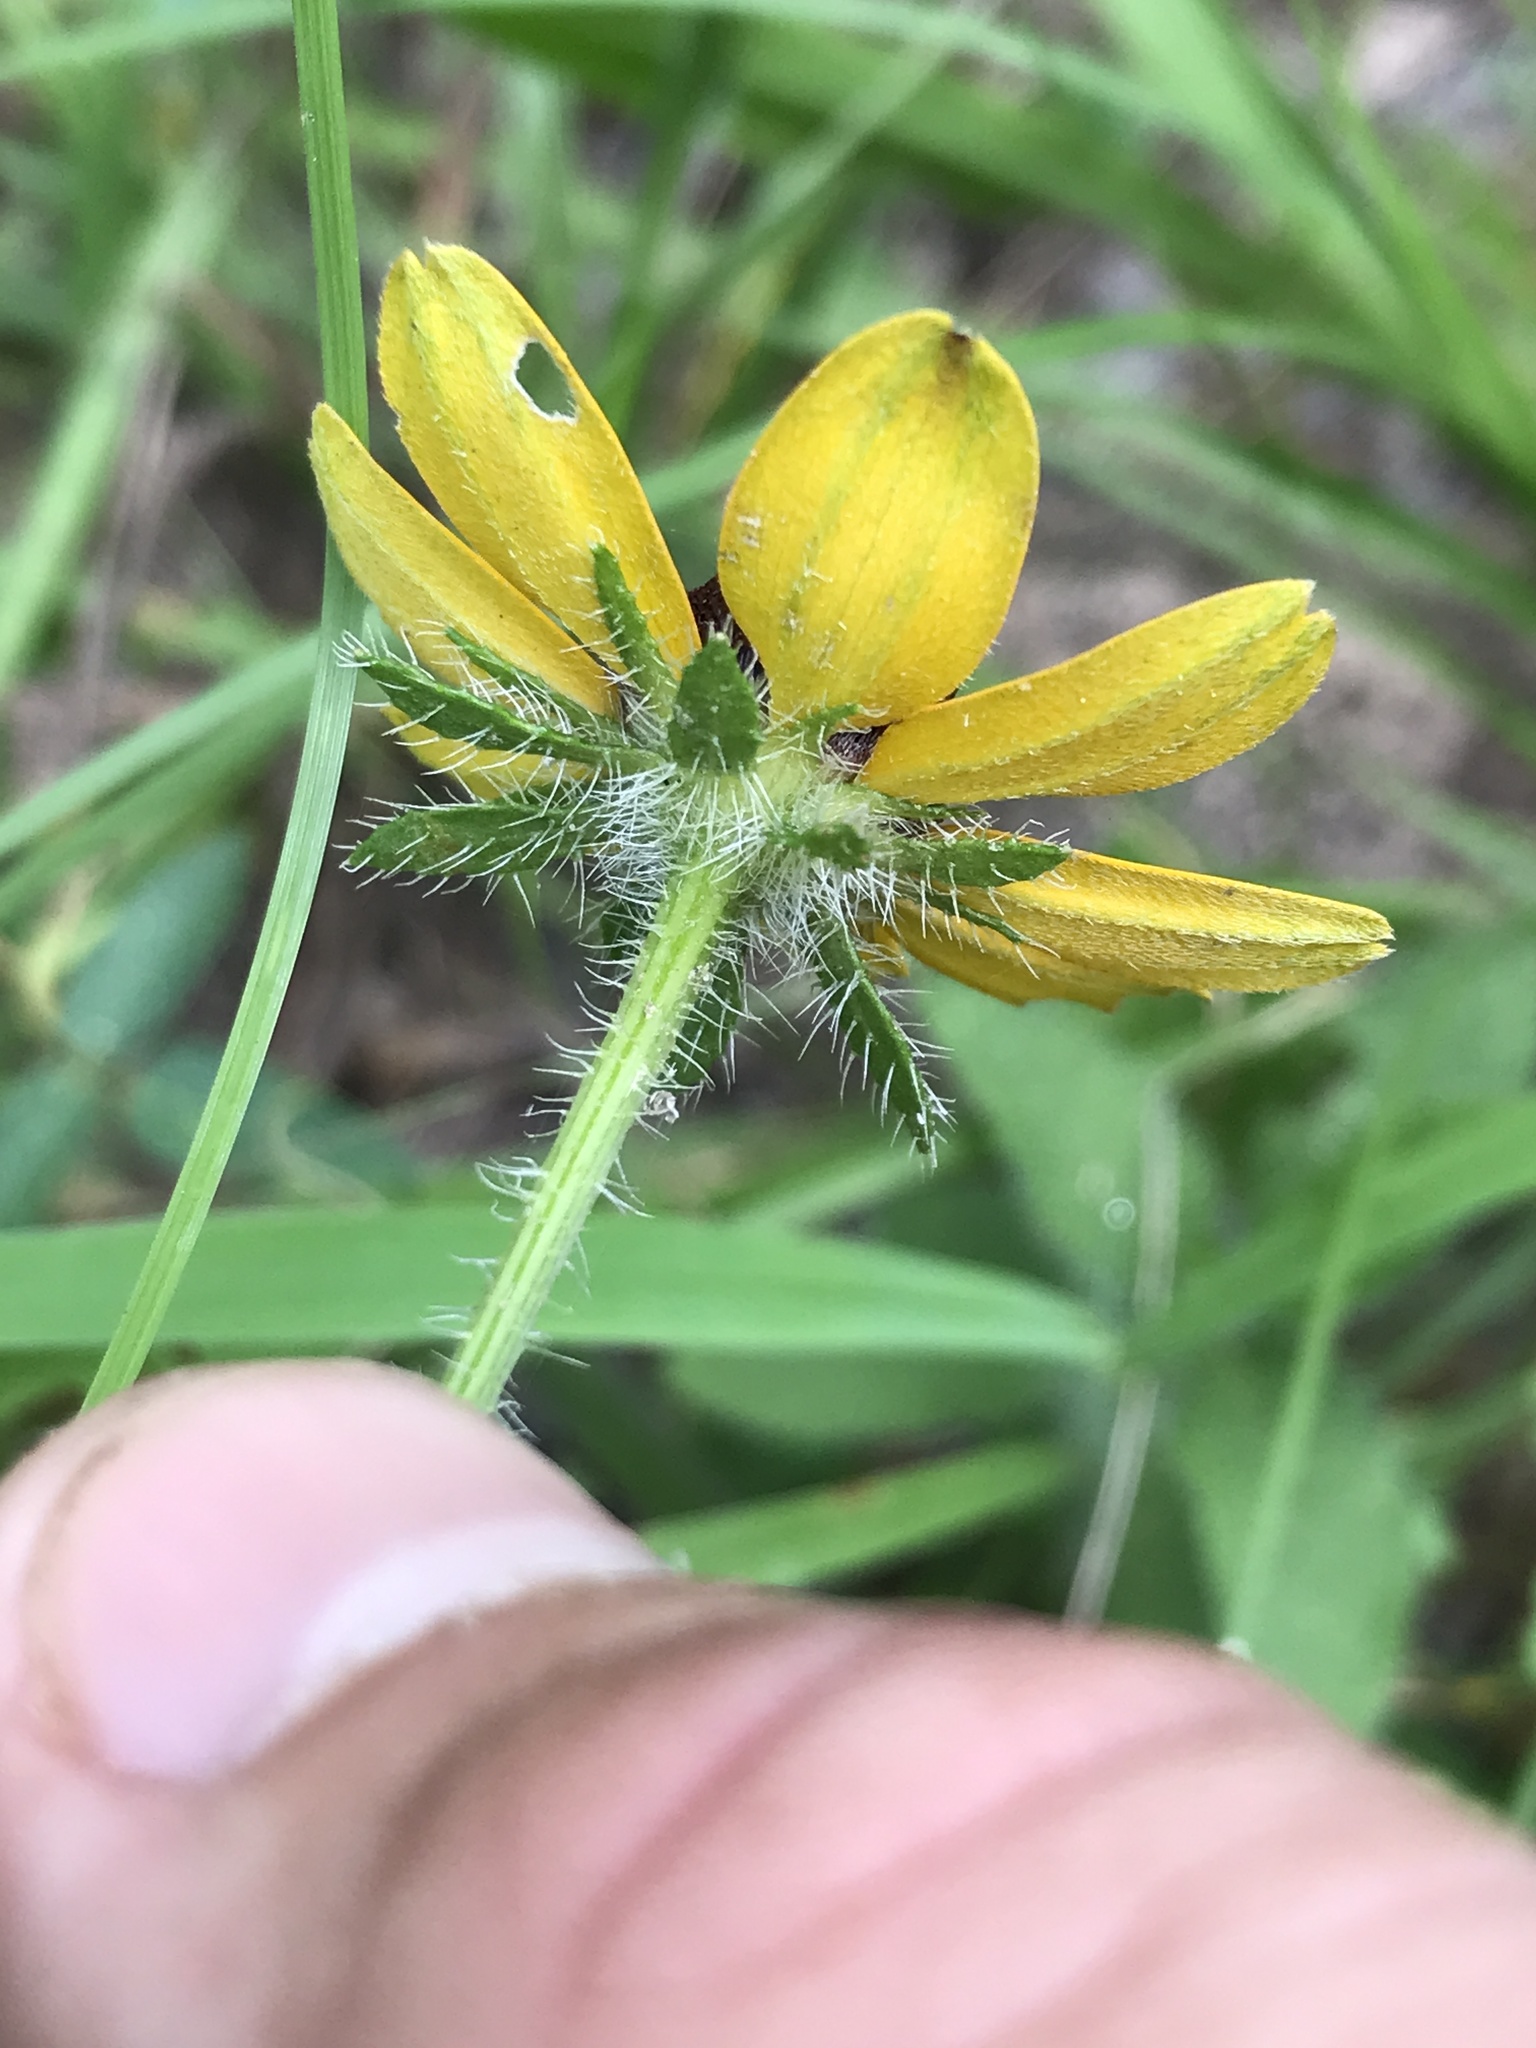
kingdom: Plantae
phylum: Tracheophyta
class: Magnoliopsida
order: Asterales
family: Asteraceae
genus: Rudbeckia
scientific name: Rudbeckia hirta
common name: Black-eyed-susan
